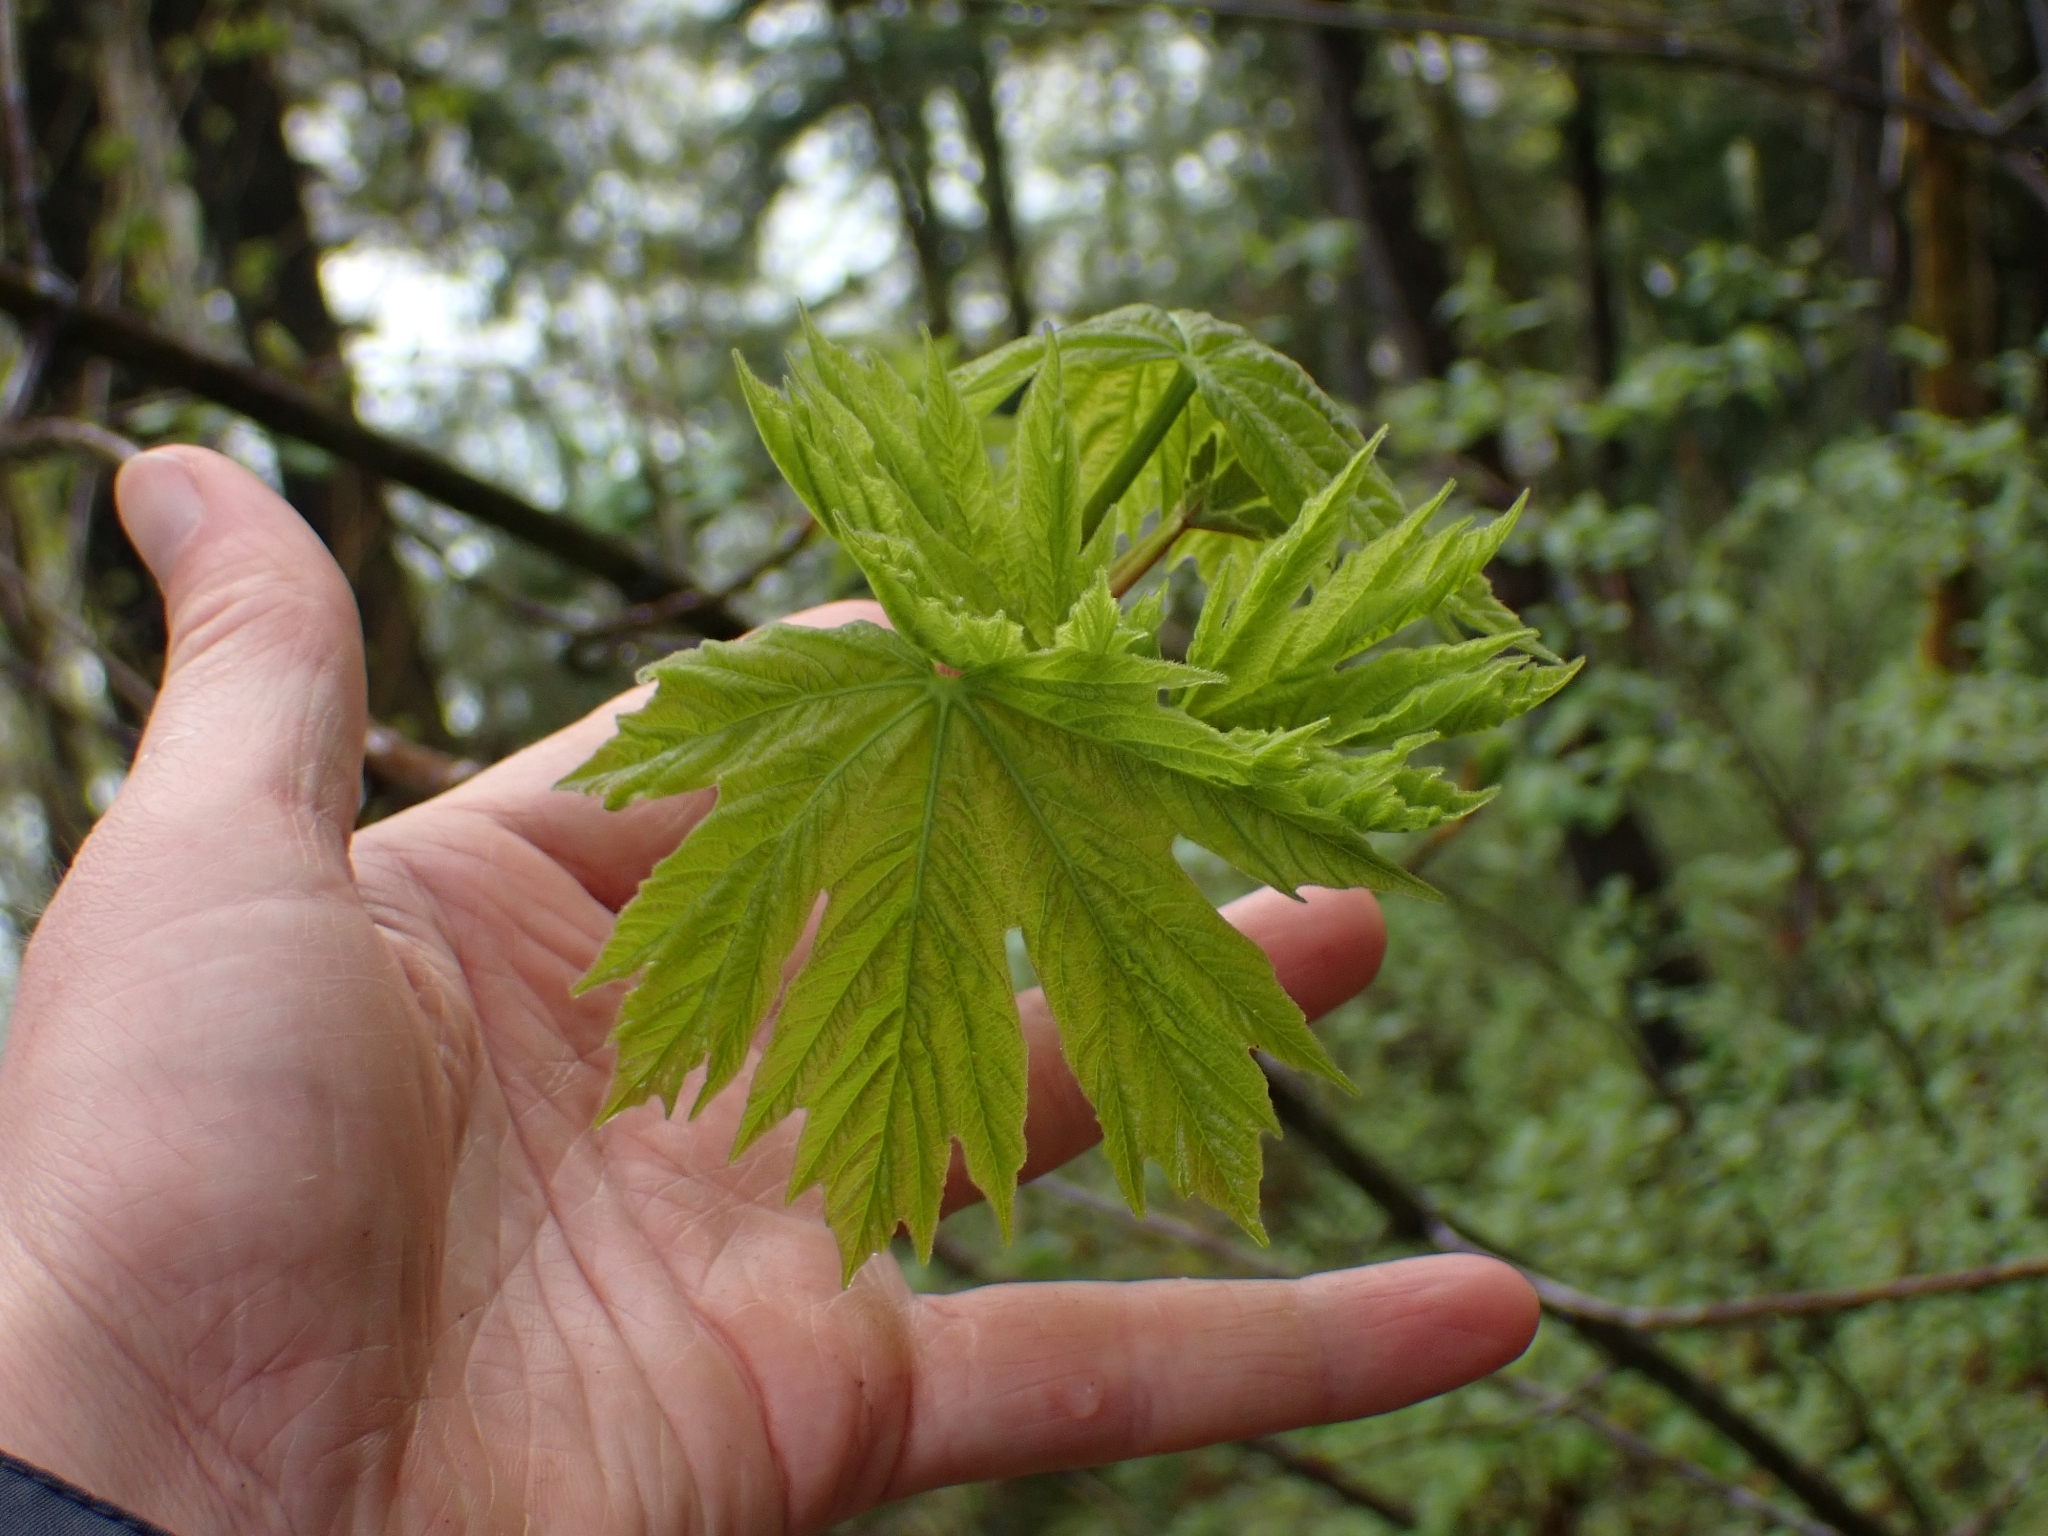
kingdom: Plantae
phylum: Tracheophyta
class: Magnoliopsida
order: Sapindales
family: Sapindaceae
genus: Acer
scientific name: Acer macrophyllum
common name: Oregon maple
